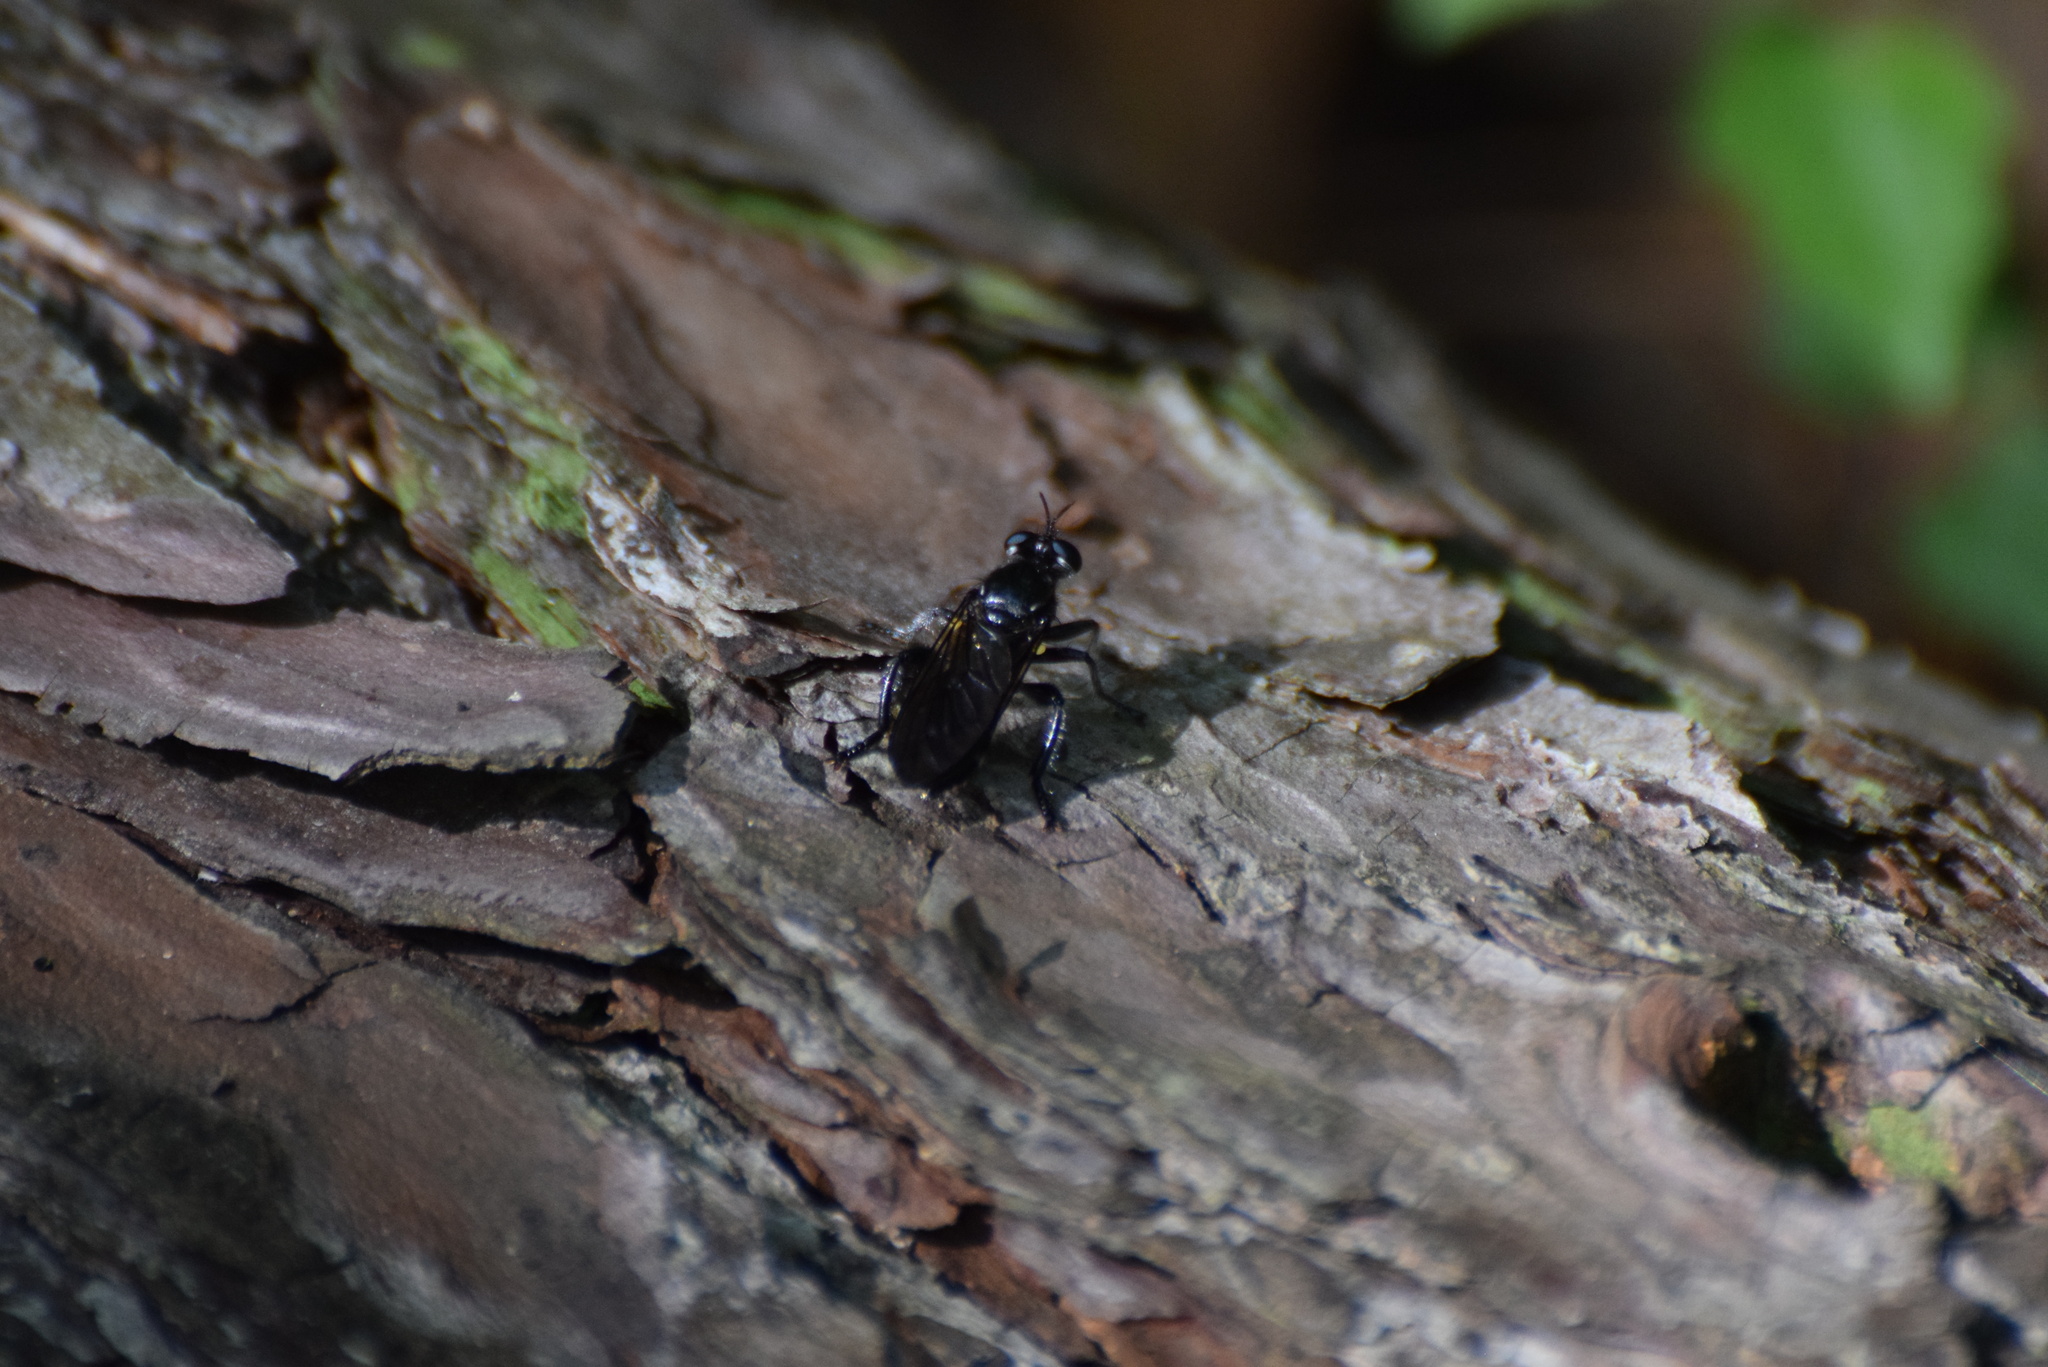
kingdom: Animalia
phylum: Arthropoda
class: Insecta
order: Diptera
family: Asilidae
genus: Laphria
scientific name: Laphria
